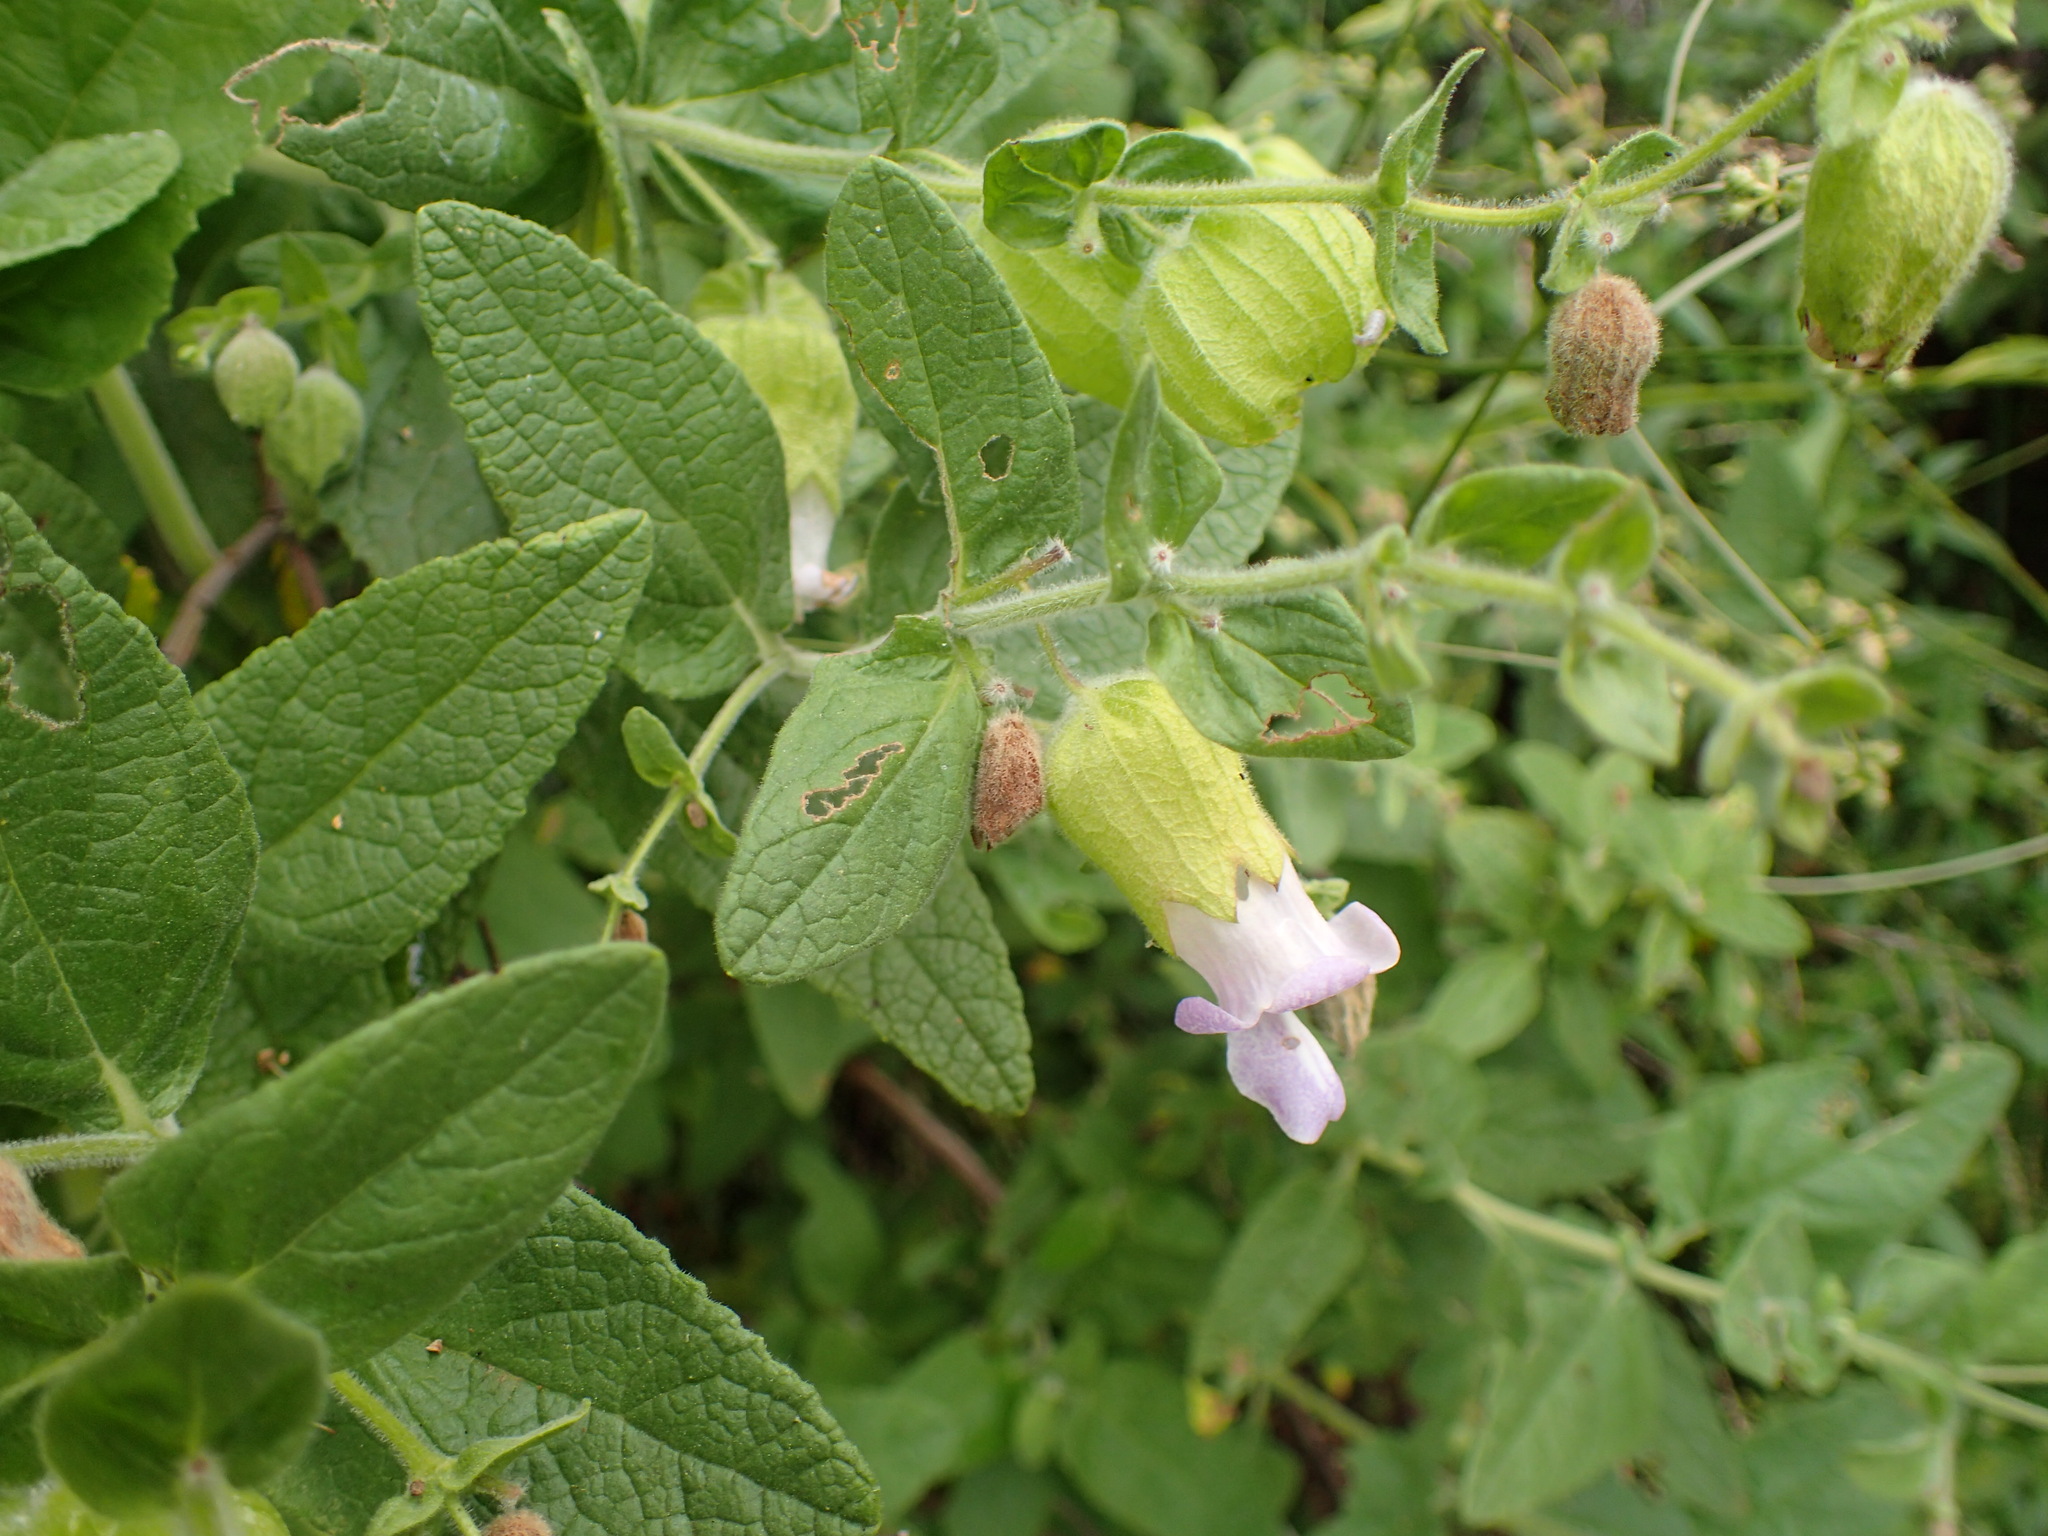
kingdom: Plantae
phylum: Tracheophyta
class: Magnoliopsida
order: Lamiales
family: Lamiaceae
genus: Lepechinia
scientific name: Lepechinia calycina
